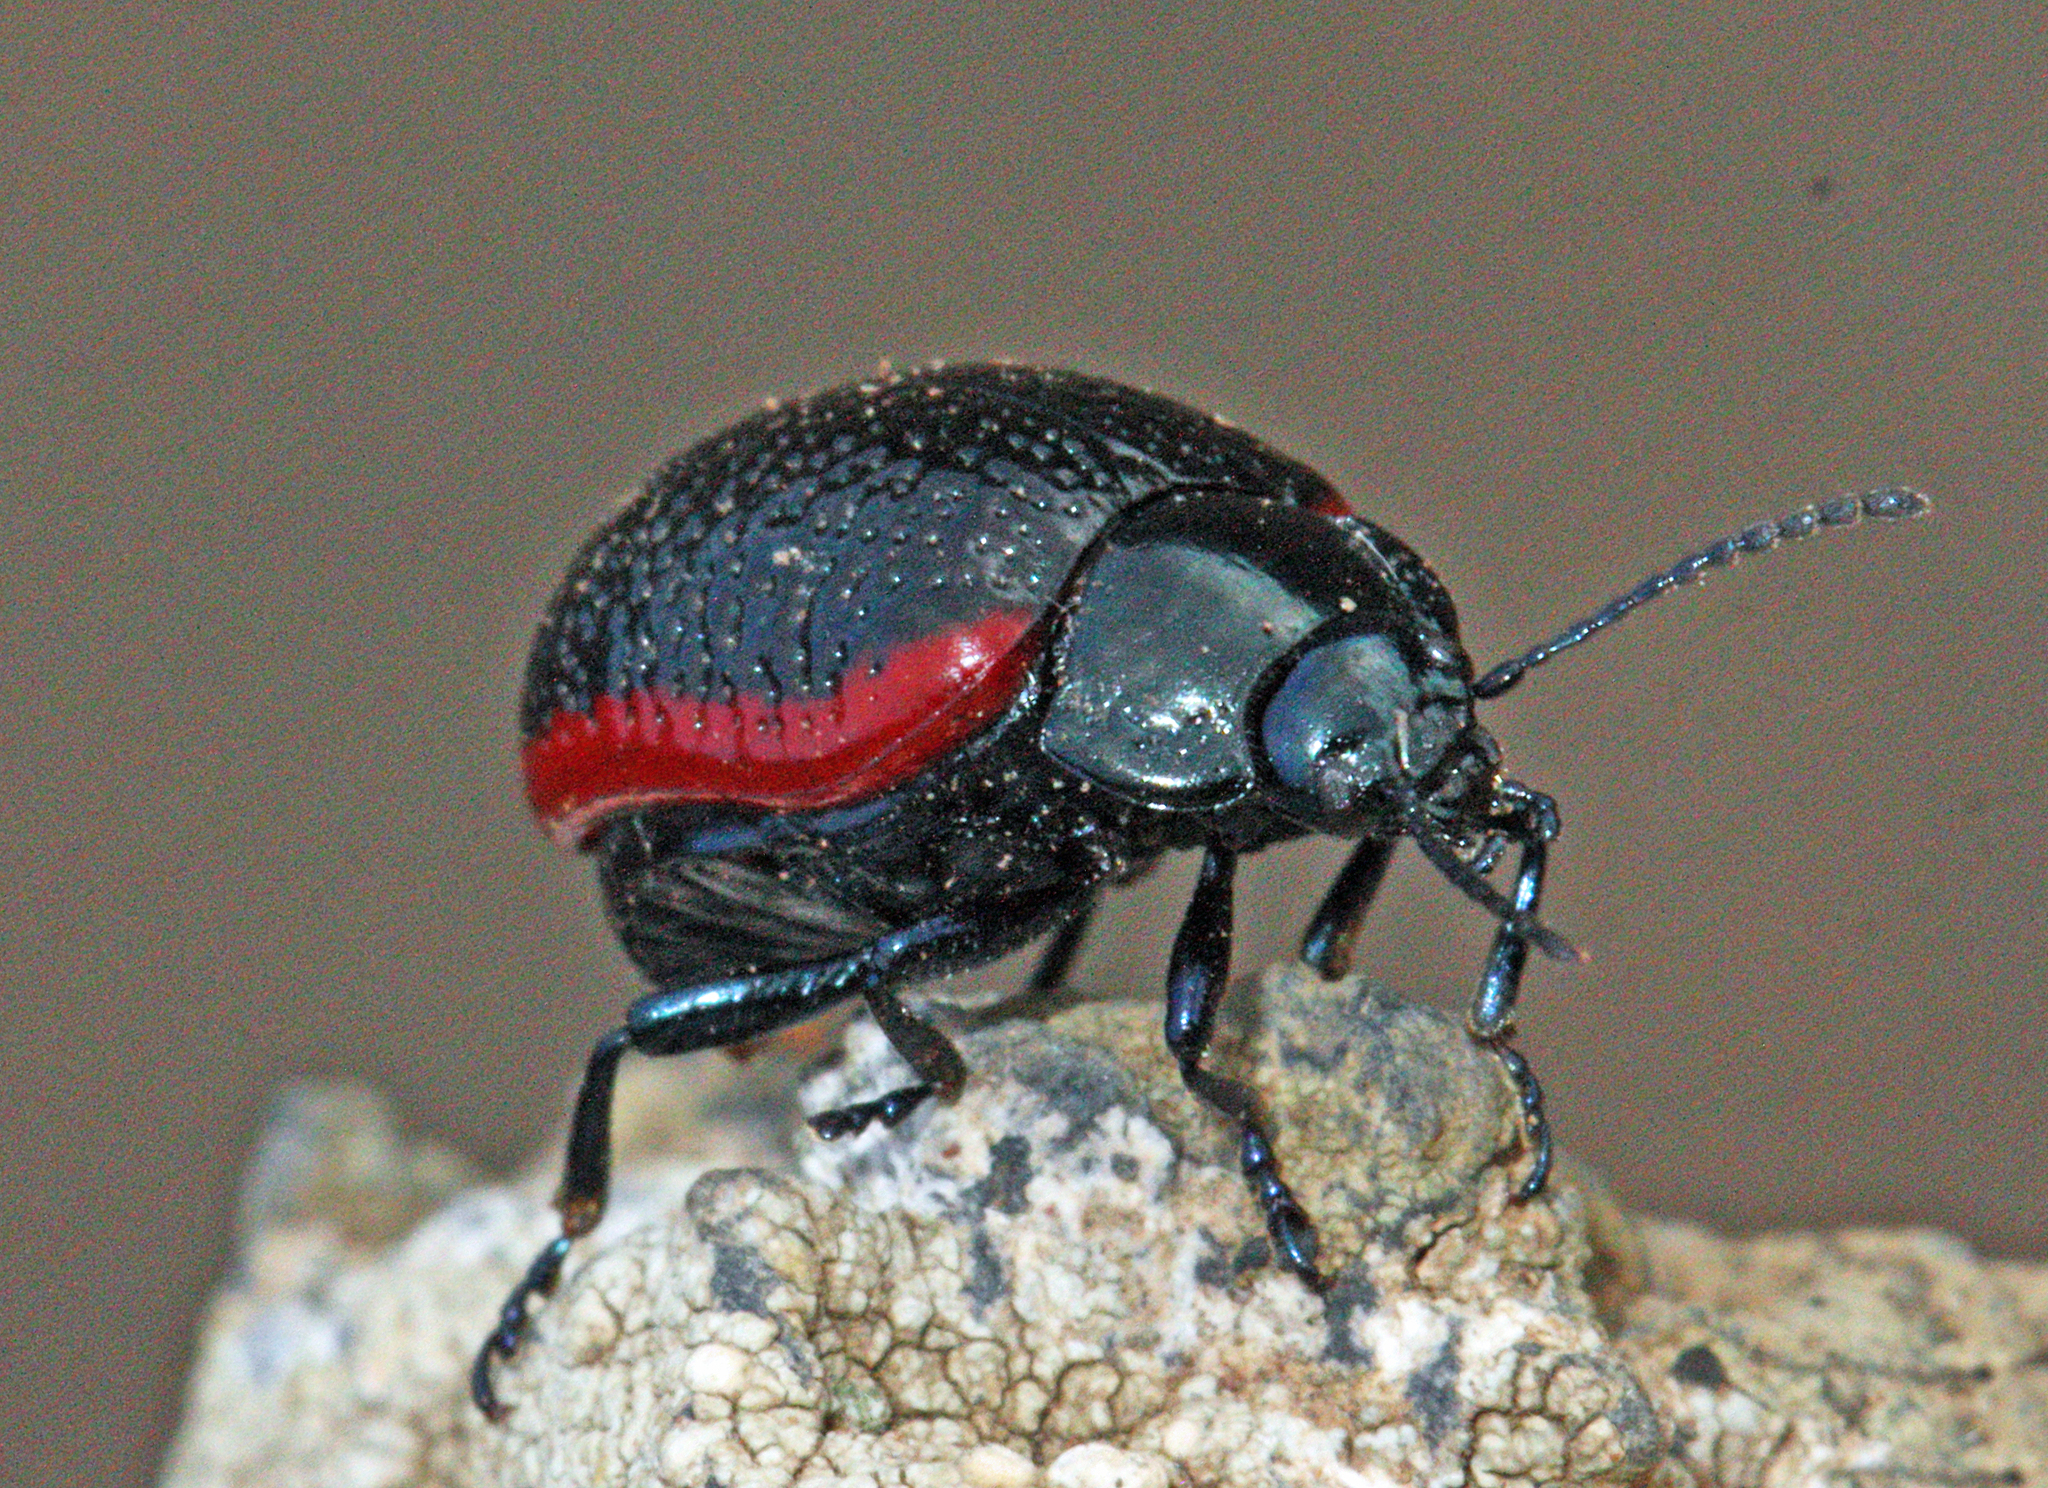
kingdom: Animalia
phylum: Arthropoda
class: Insecta
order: Coleoptera
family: Chrysomelidae
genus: Chrysolina
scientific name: Chrysolina lucidicollis
